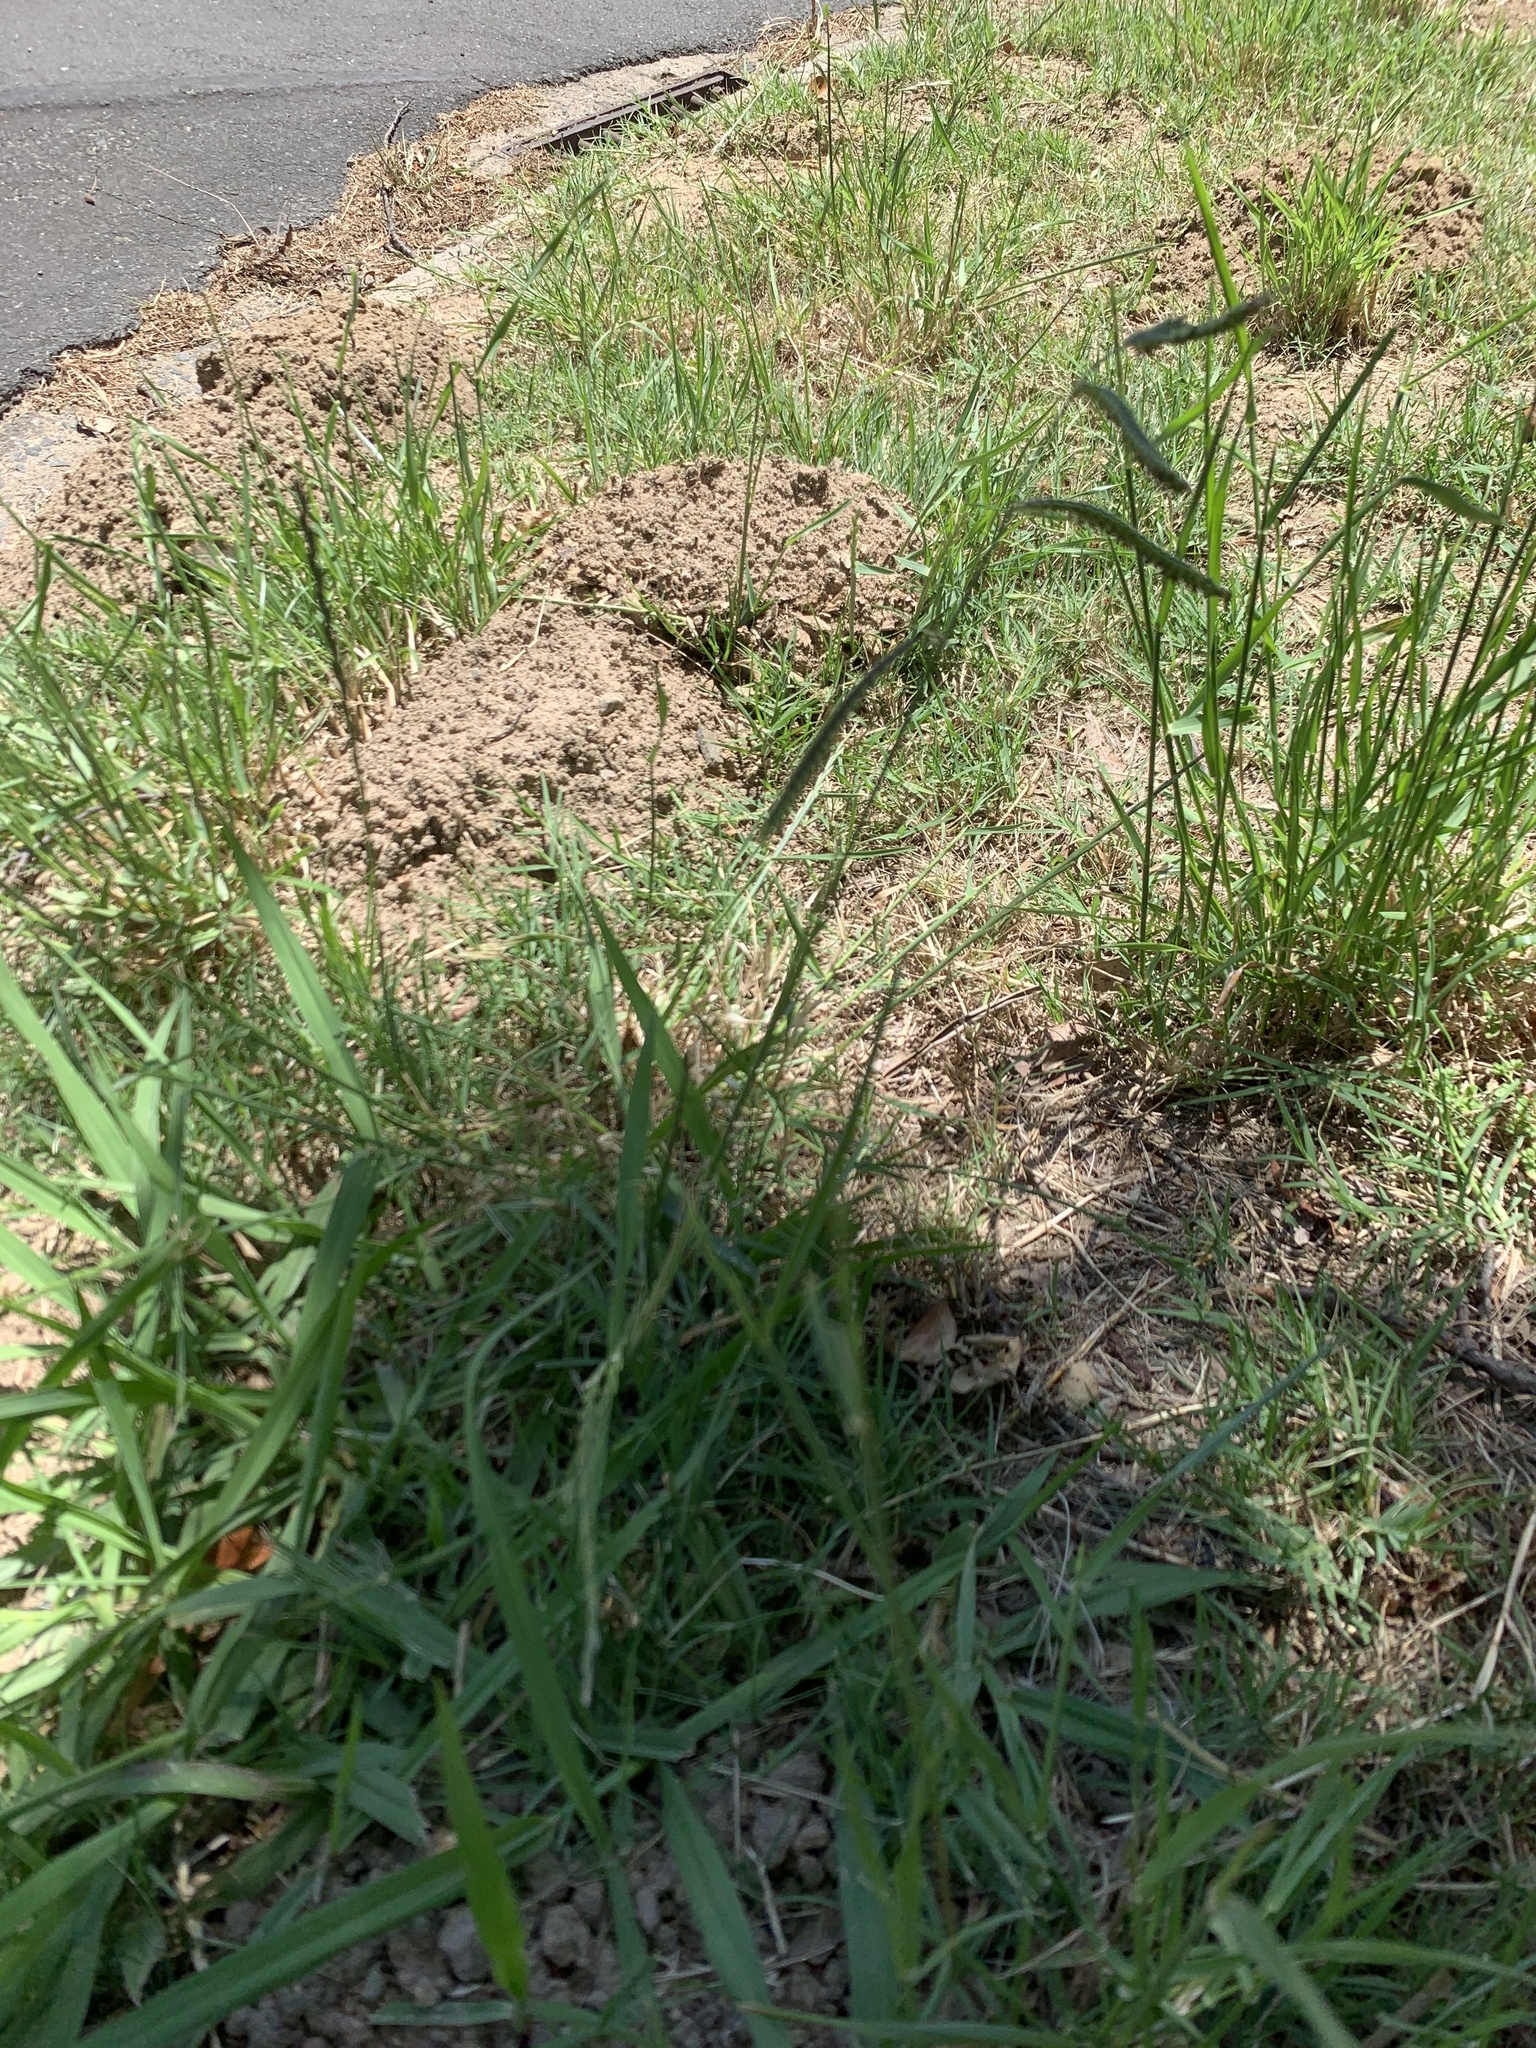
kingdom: Plantae
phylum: Tracheophyta
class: Liliopsida
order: Poales
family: Poaceae
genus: Paspalum
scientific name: Paspalum dilatatum
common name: Dallisgrass
